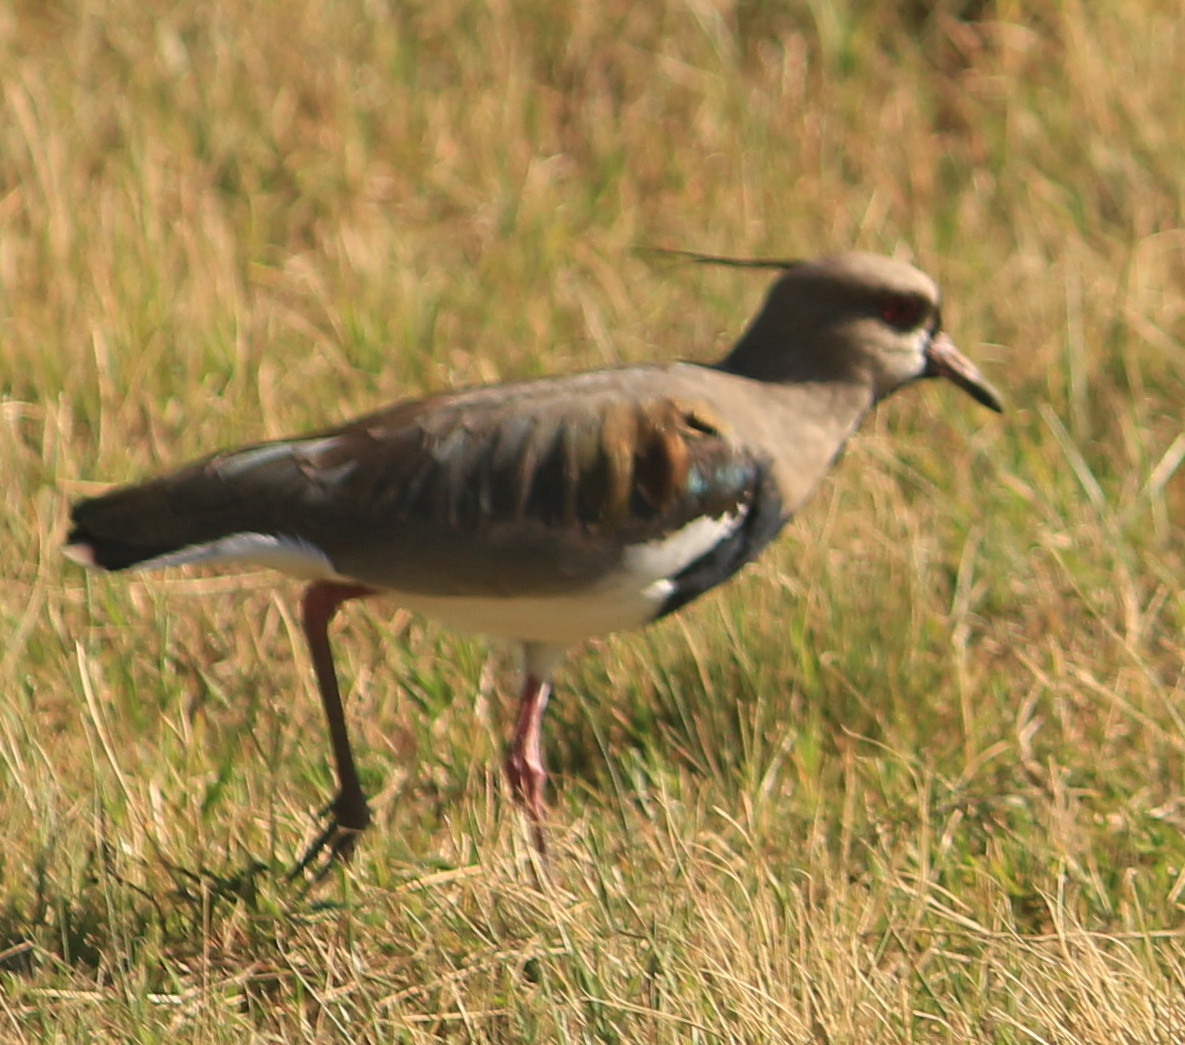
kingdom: Animalia
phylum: Chordata
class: Aves
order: Charadriiformes
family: Charadriidae
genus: Vanellus
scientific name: Vanellus chilensis
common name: Southern lapwing
